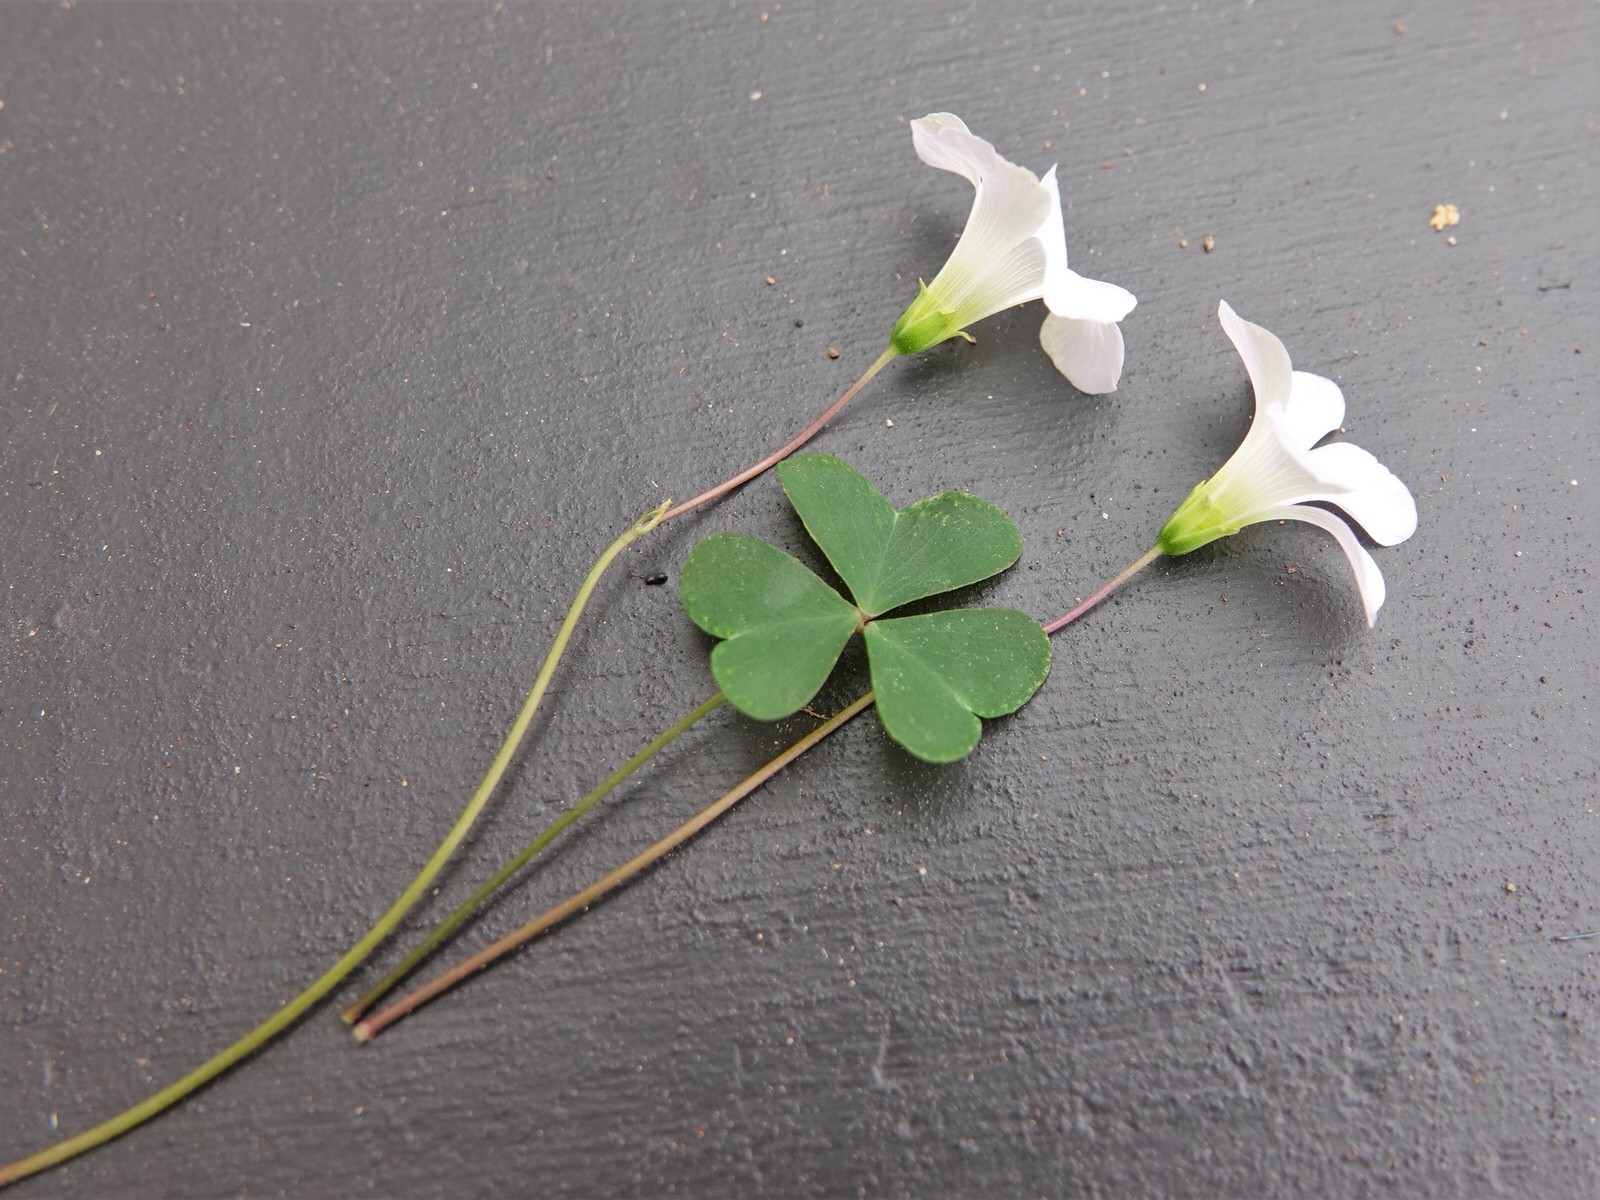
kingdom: Plantae
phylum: Tracheophyta
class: Magnoliopsida
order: Oxalidales
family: Oxalidaceae
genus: Oxalis
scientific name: Oxalis incarnata
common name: Pale pink-sorrel
